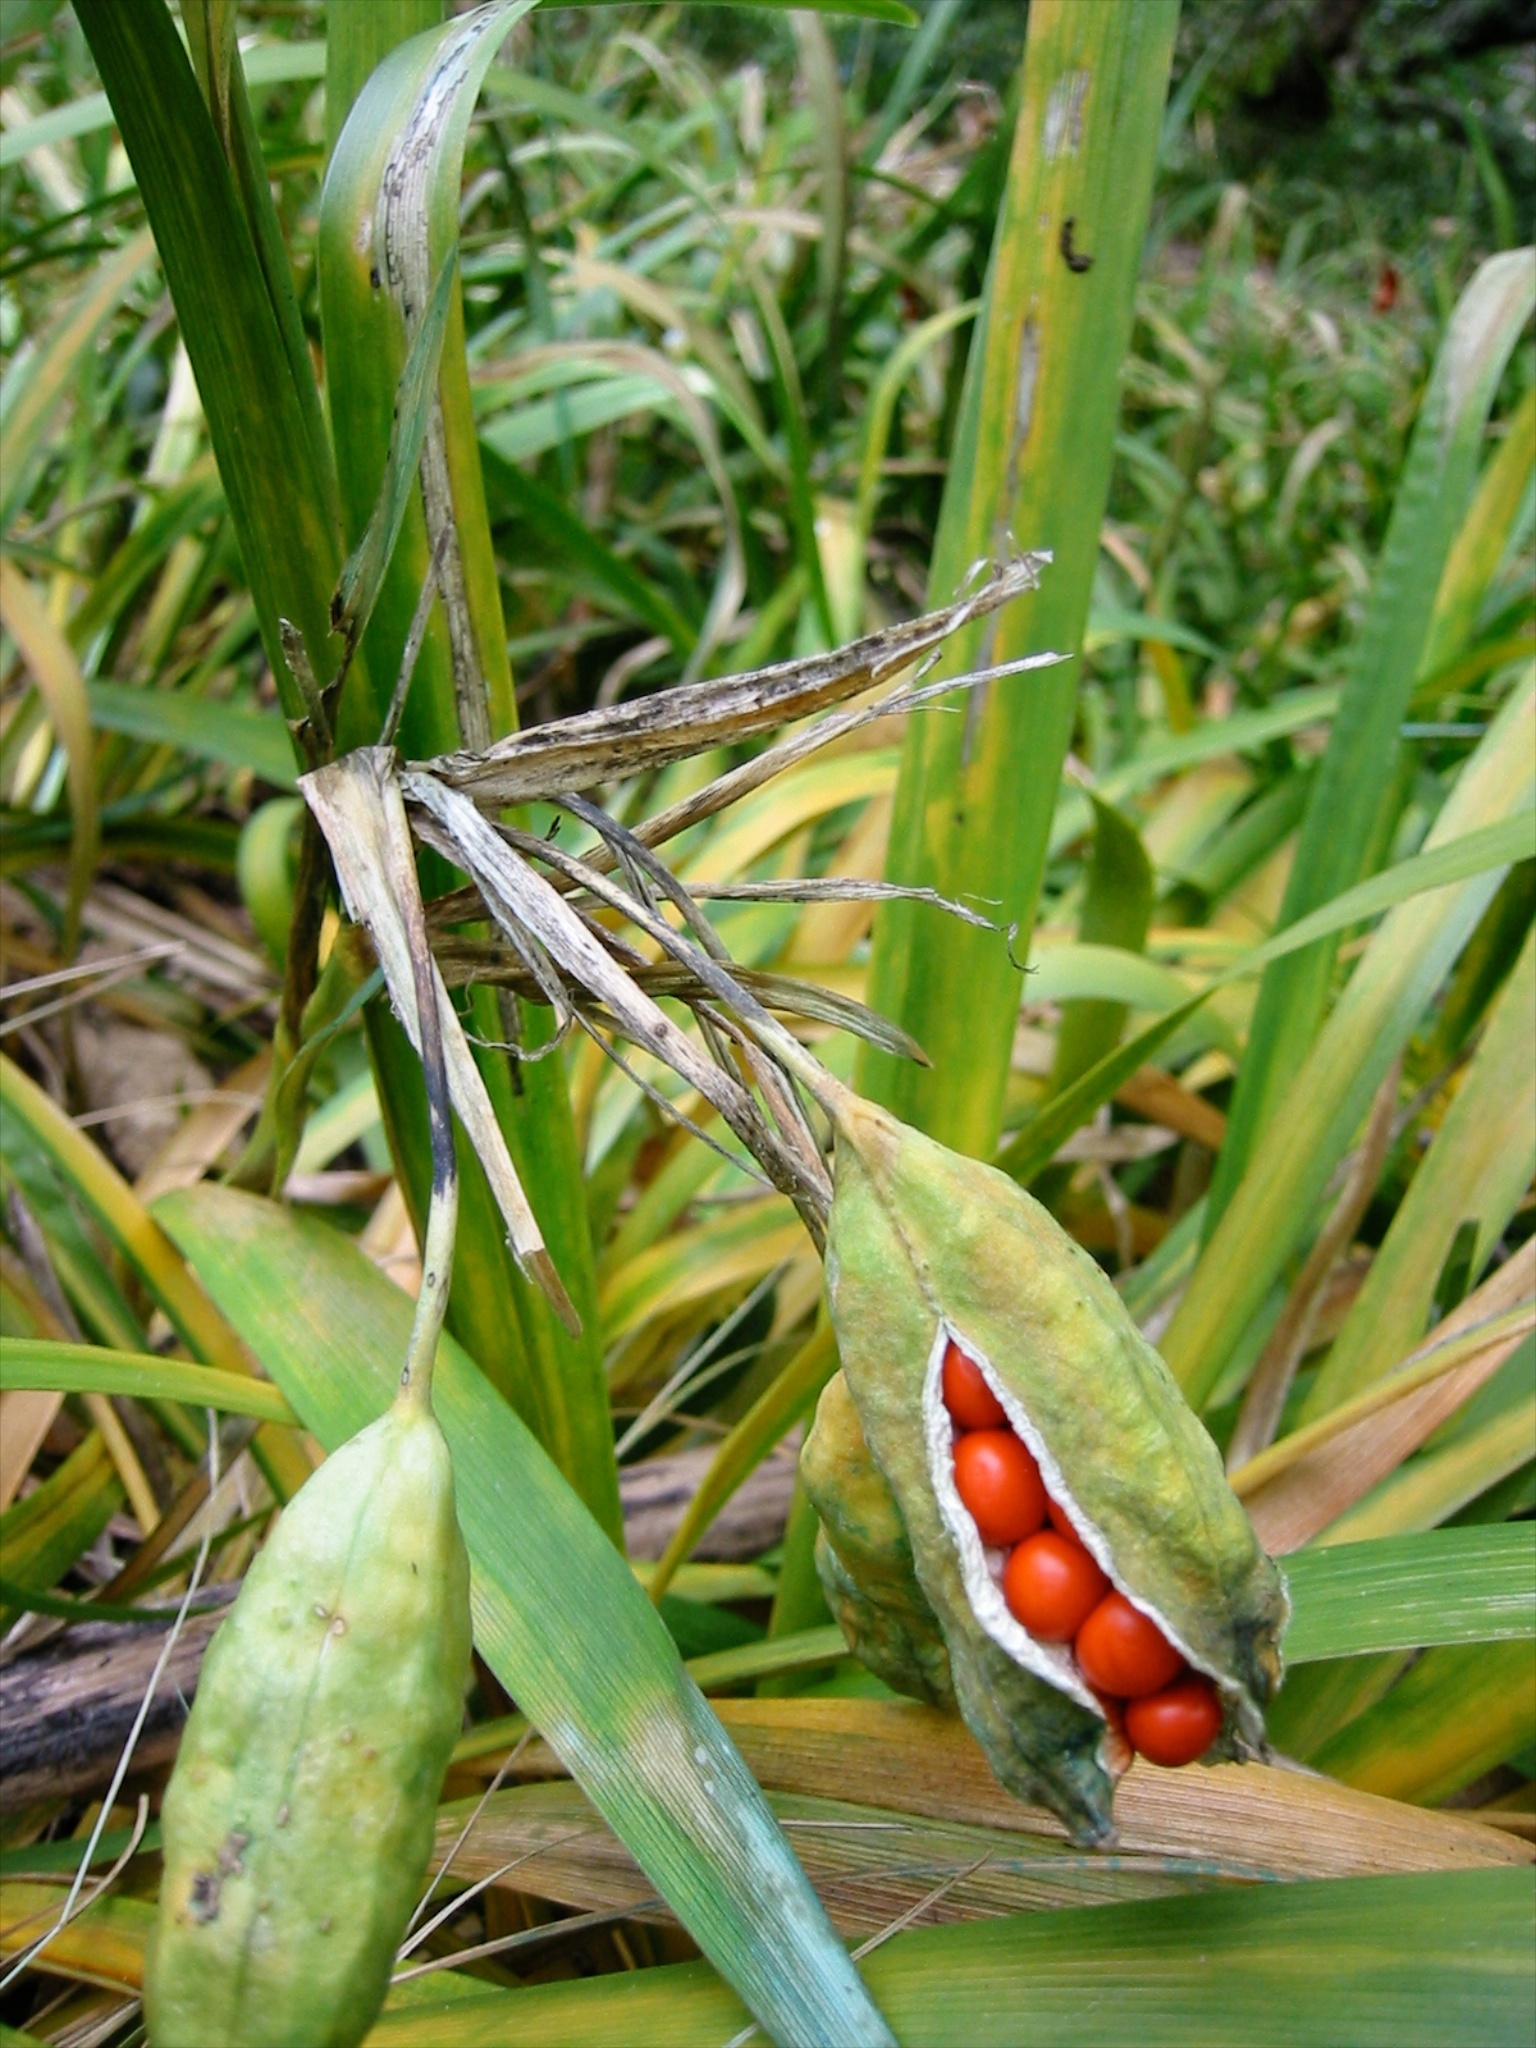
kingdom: Plantae
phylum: Tracheophyta
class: Liliopsida
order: Asparagales
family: Iridaceae
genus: Iris
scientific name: Iris foetidissima
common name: Stinking iris
